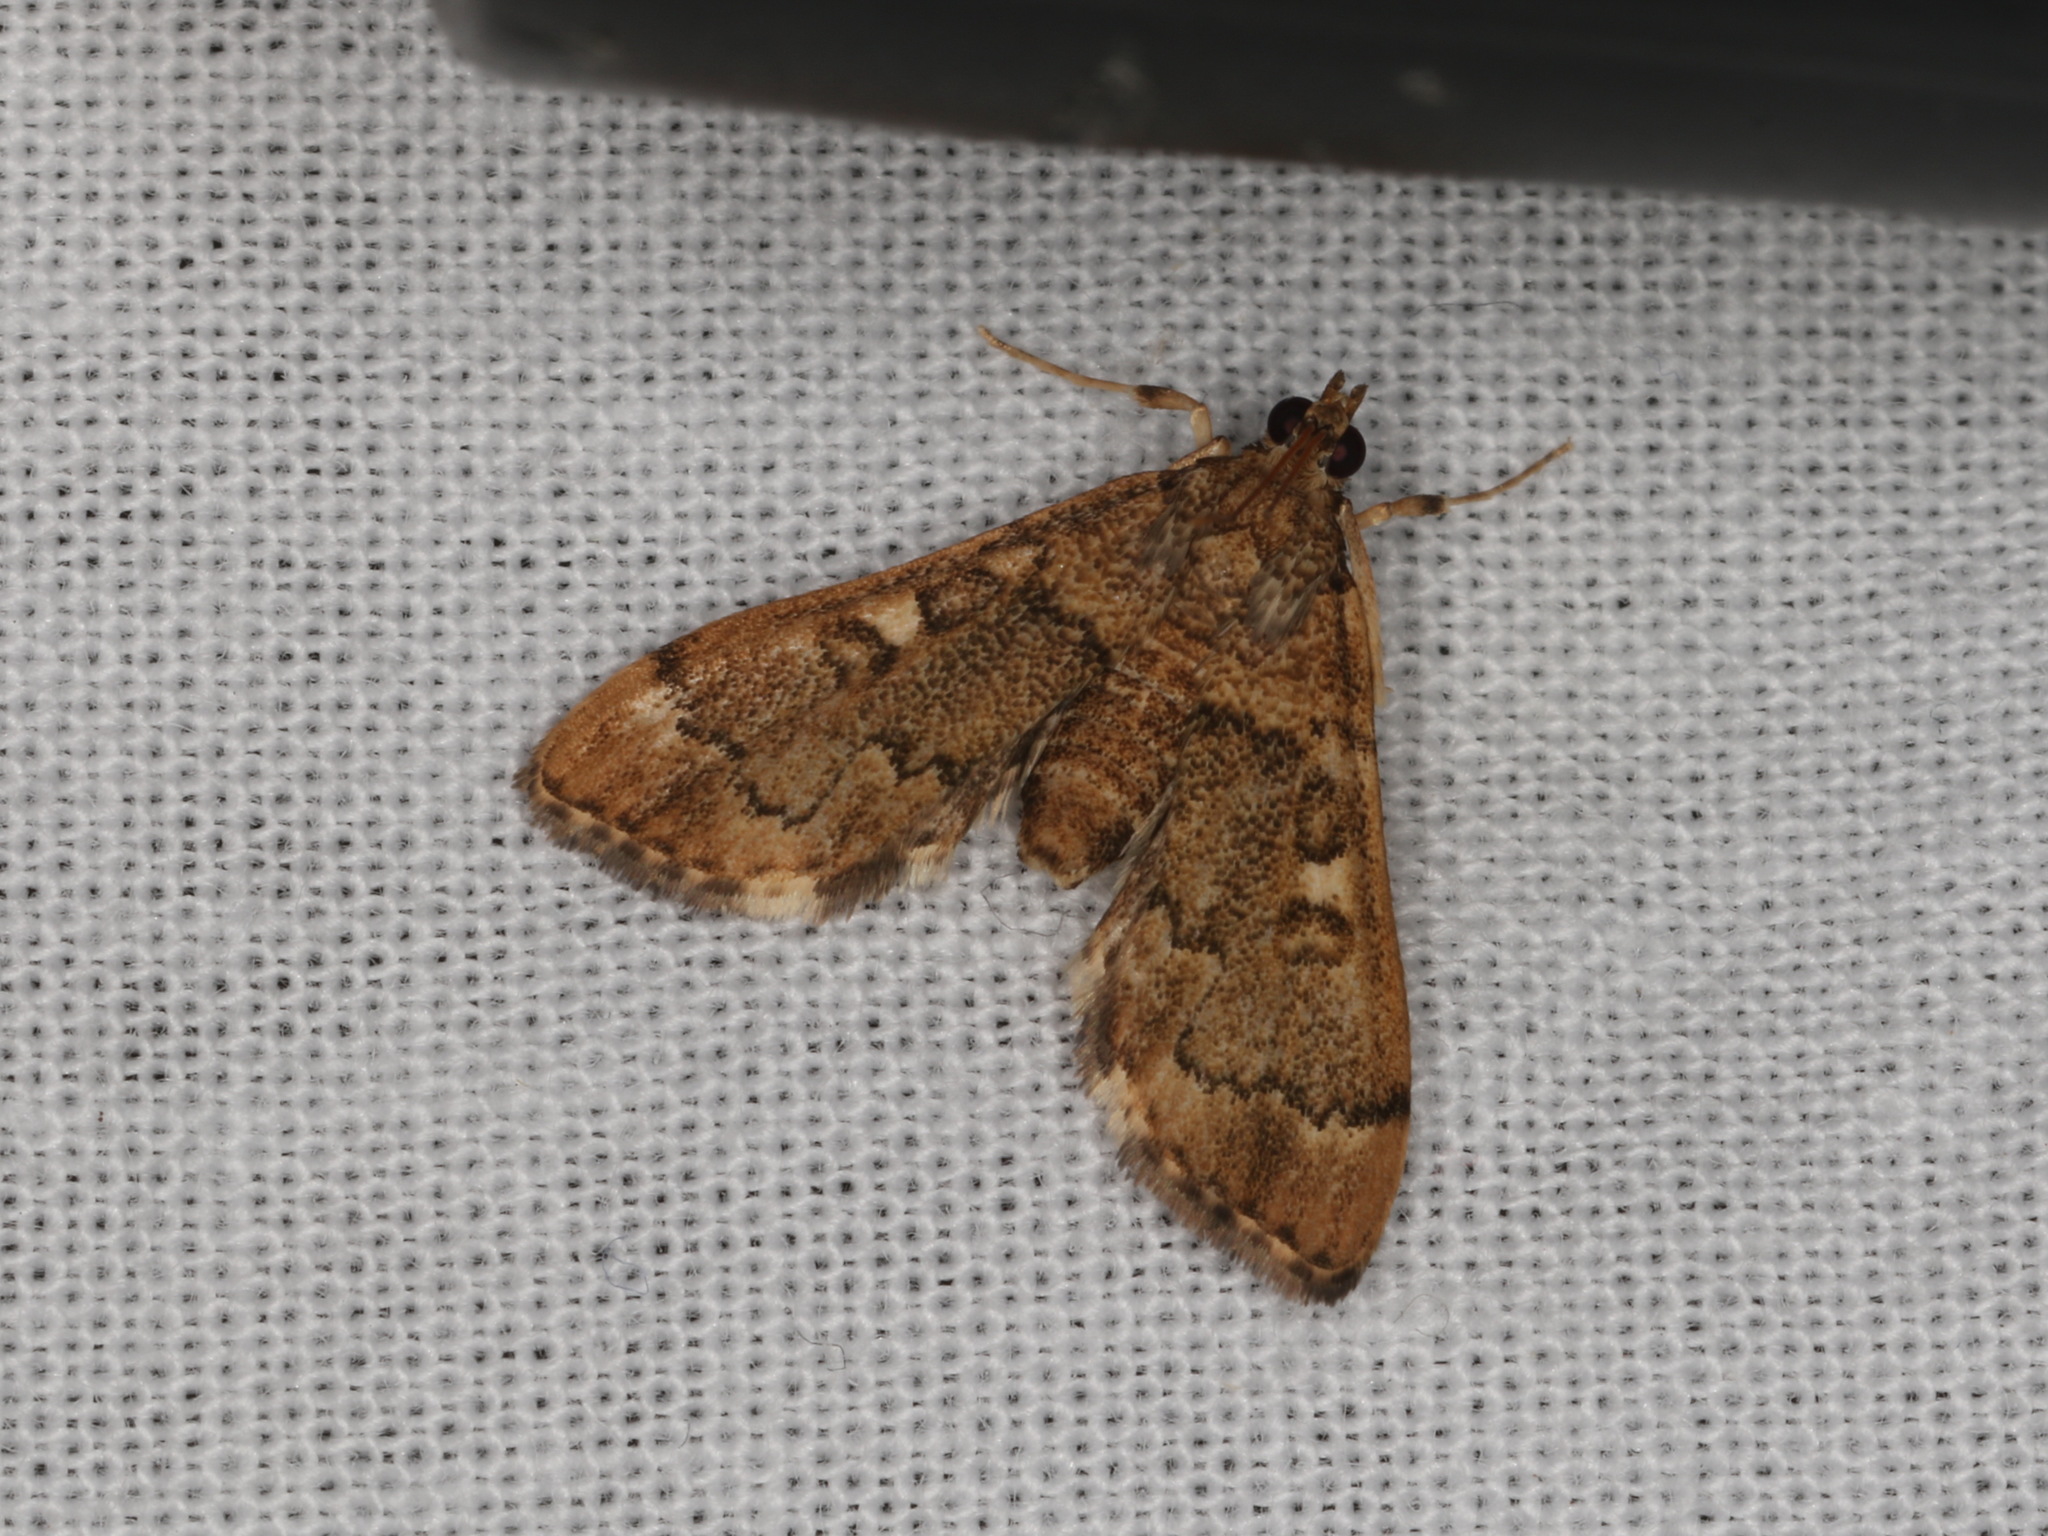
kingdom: Animalia
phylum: Arthropoda
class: Insecta
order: Lepidoptera
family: Crambidae
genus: Nacoleia
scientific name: Nacoleia rhoeoalis
